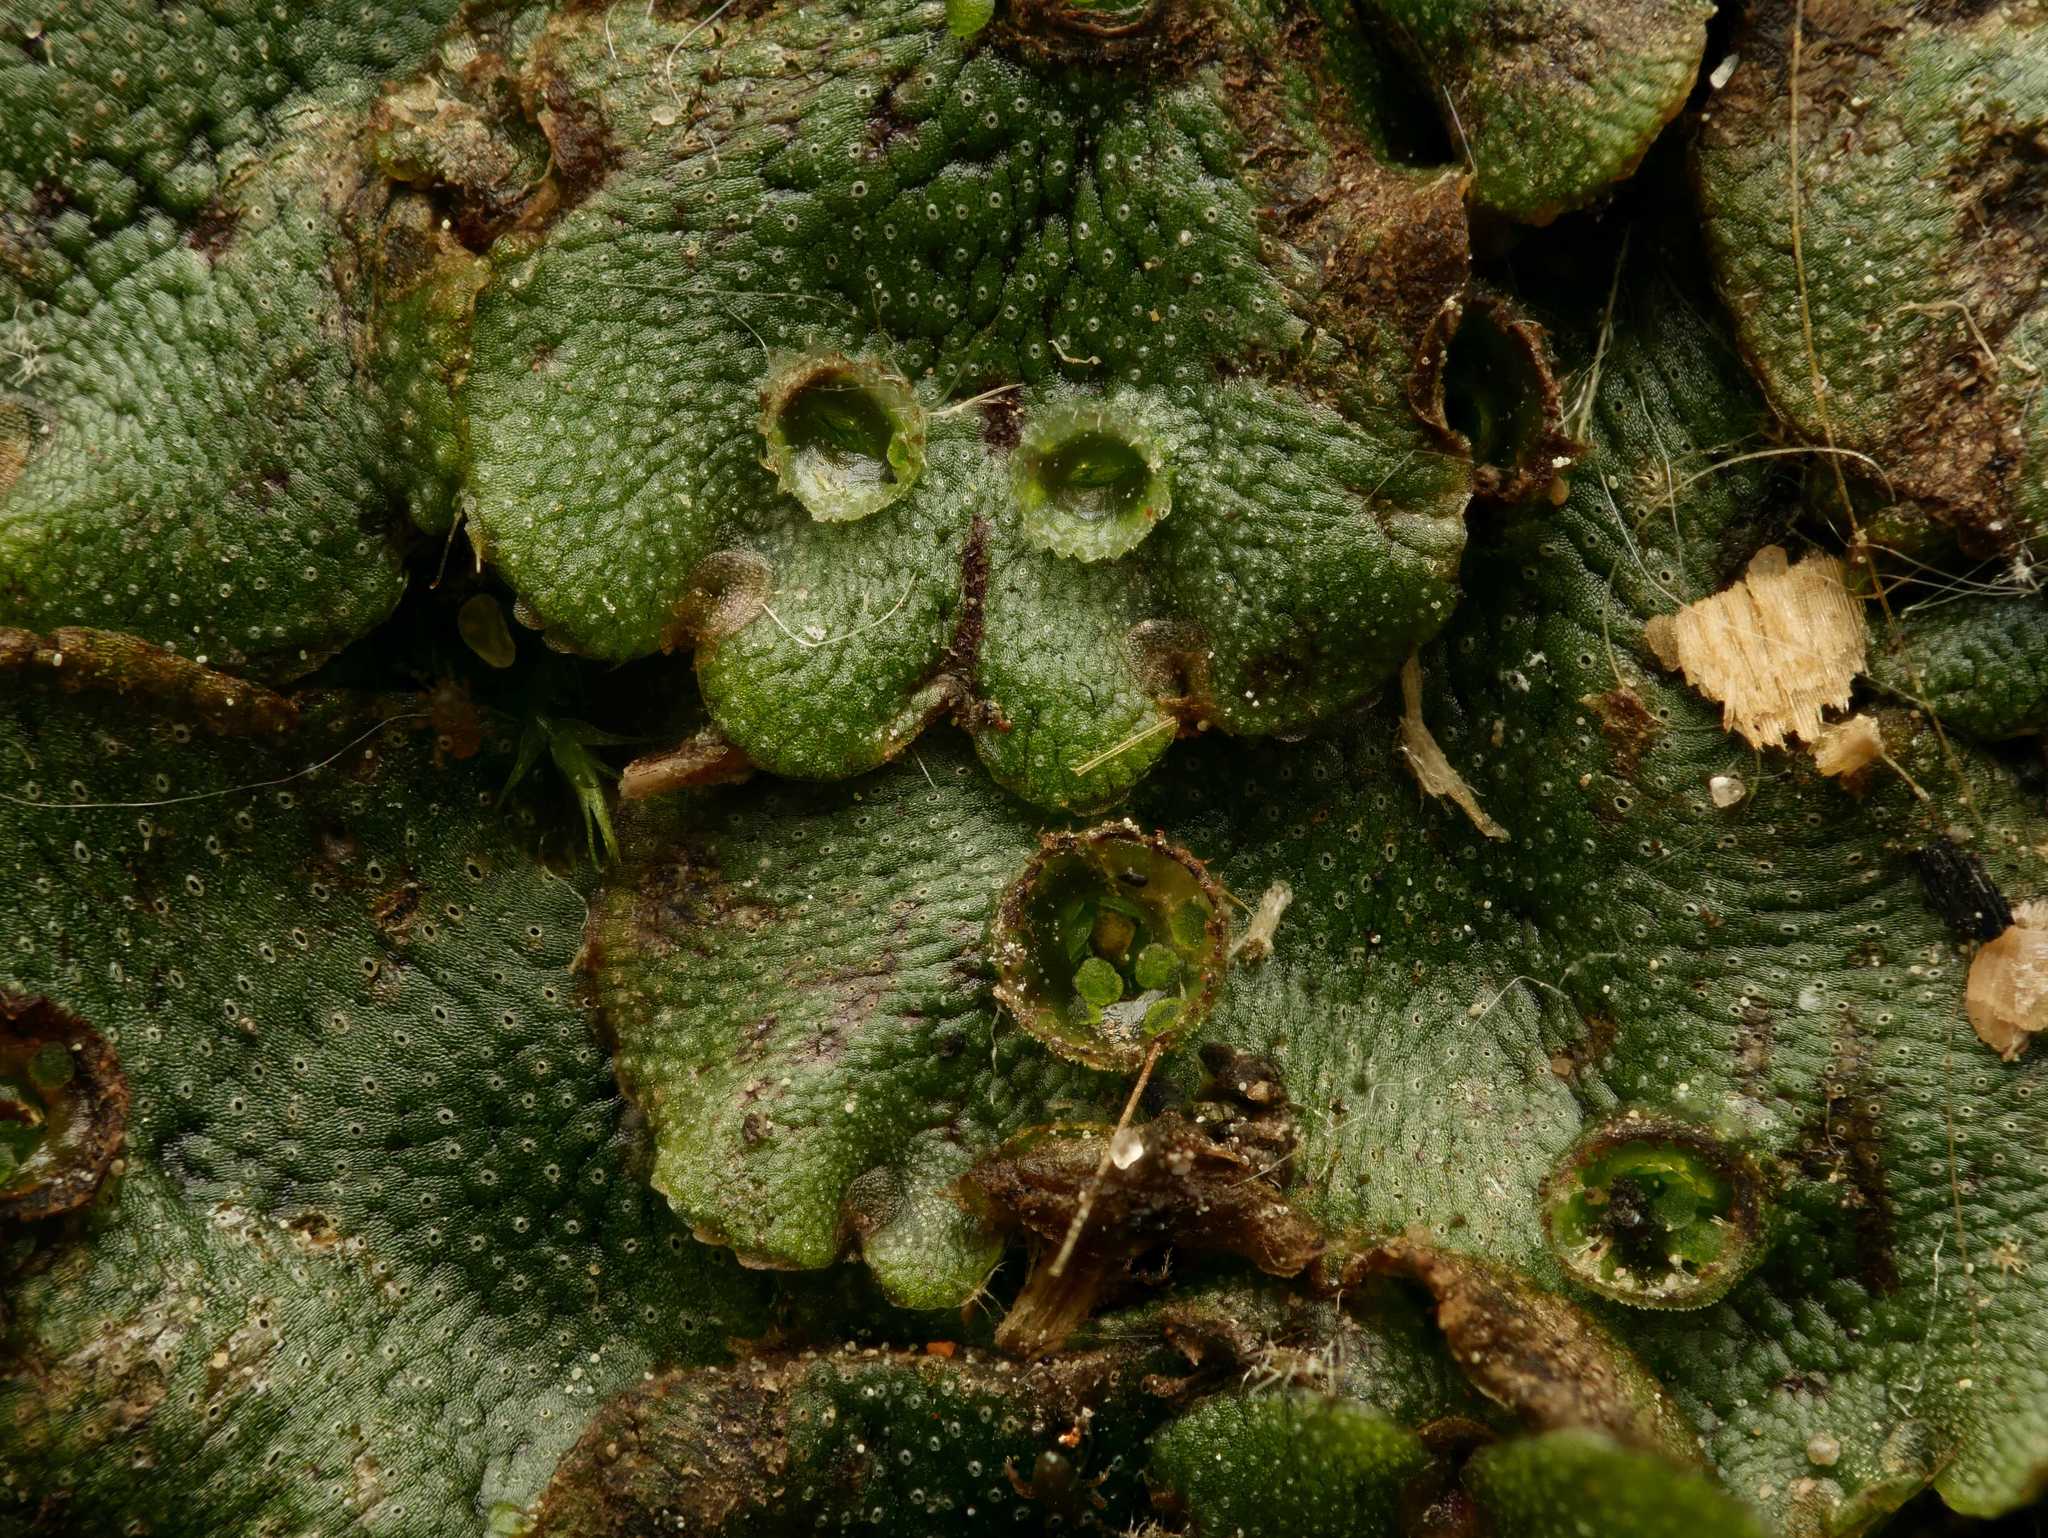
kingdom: Plantae
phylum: Marchantiophyta
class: Marchantiopsida
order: Marchantiales
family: Marchantiaceae
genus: Marchantia
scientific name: Marchantia polymorpha
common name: Common liverwort
